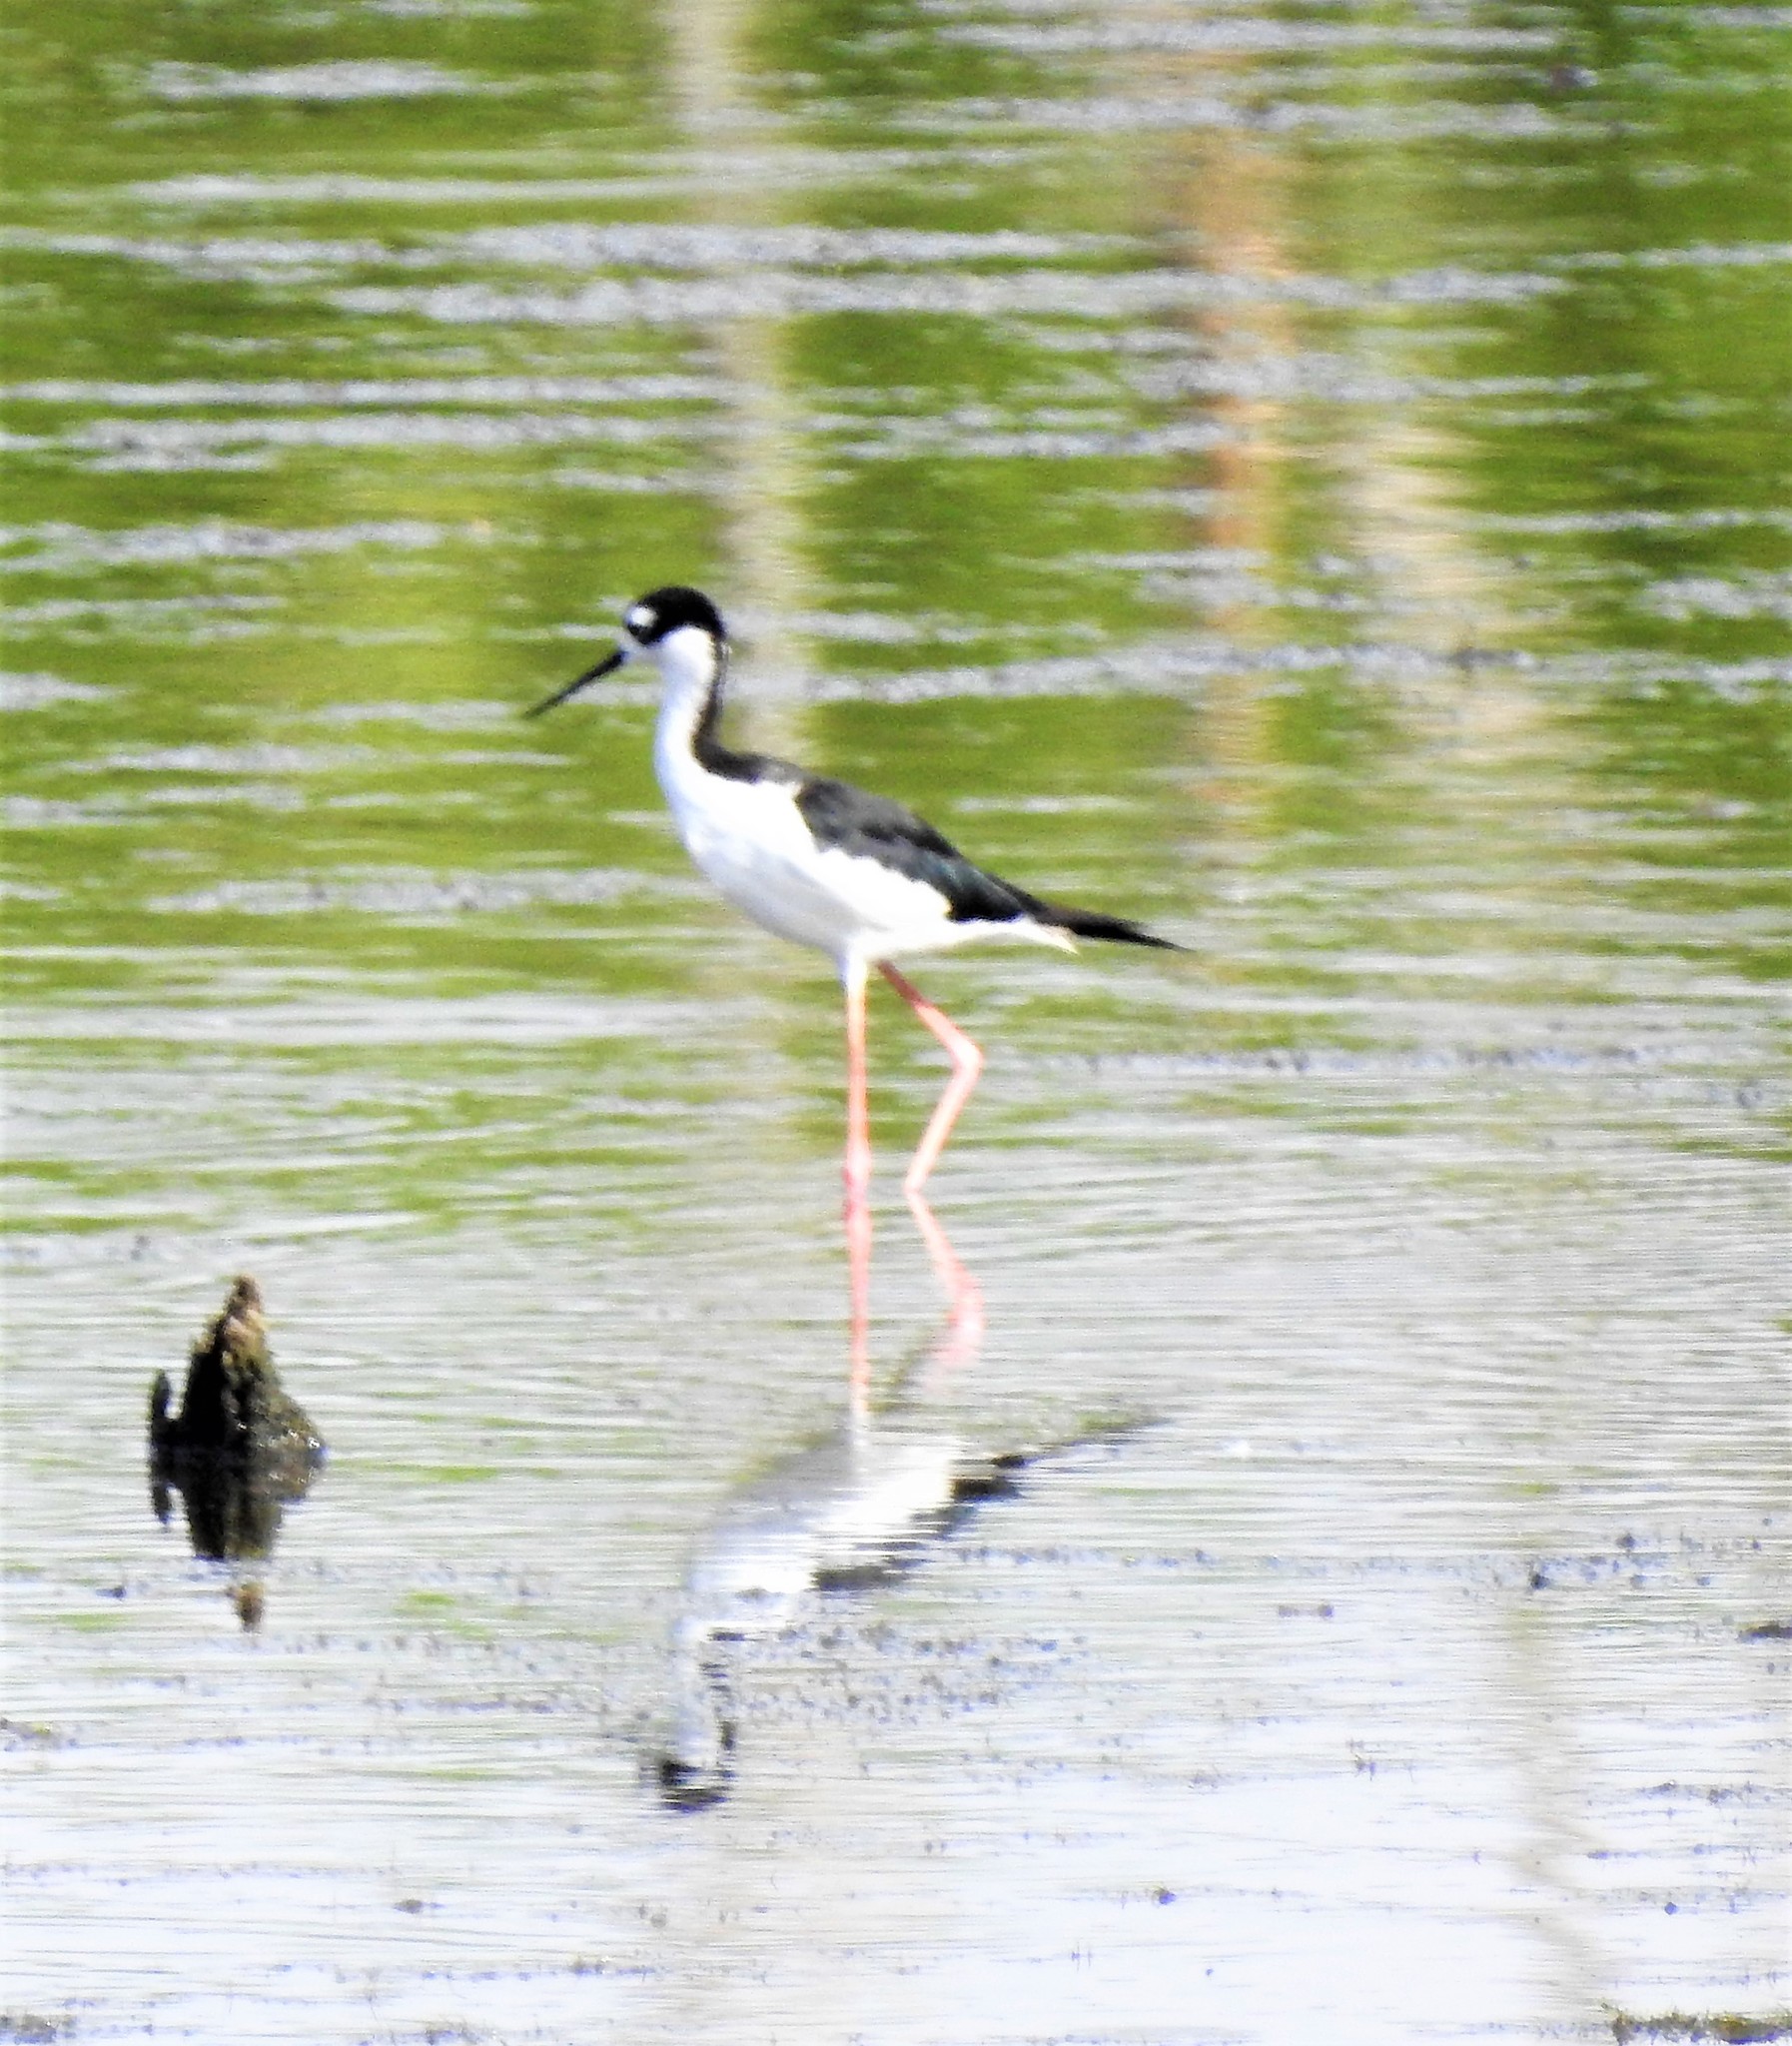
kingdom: Animalia
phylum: Chordata
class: Aves
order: Charadriiformes
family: Recurvirostridae
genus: Himantopus
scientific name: Himantopus mexicanus
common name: Black-necked stilt
